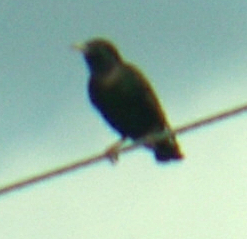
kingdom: Animalia
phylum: Chordata
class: Aves
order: Passeriformes
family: Sturnidae
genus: Sturnus
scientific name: Sturnus vulgaris
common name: Common starling
